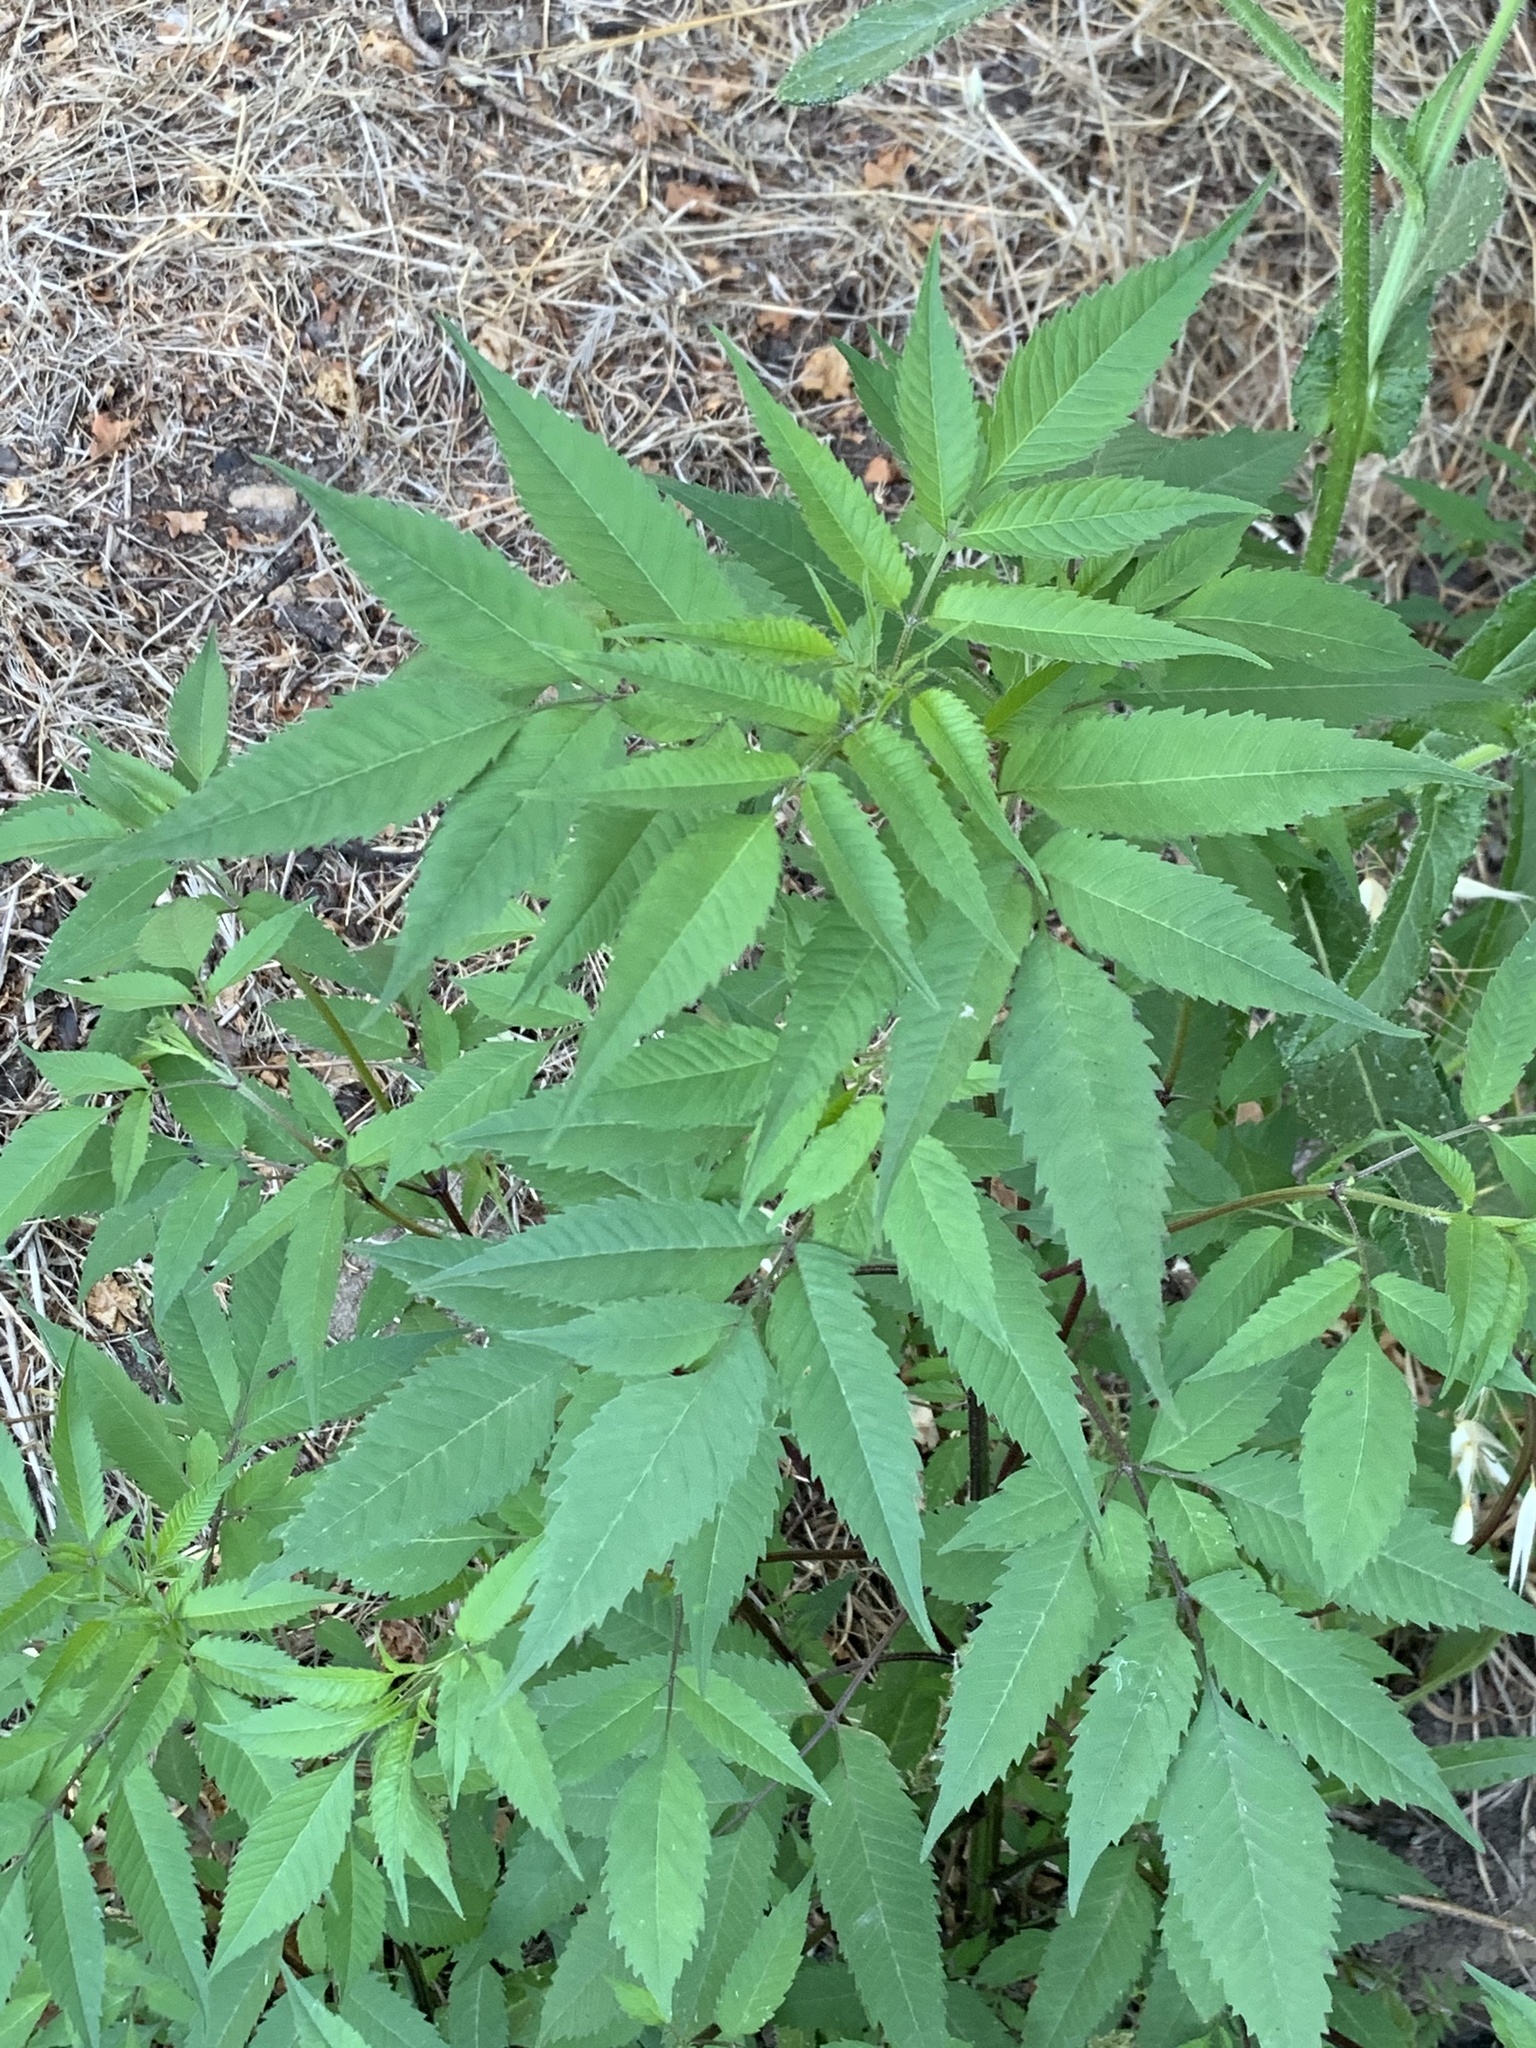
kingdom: Plantae
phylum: Tracheophyta
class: Magnoliopsida
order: Asterales
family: Asteraceae
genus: Bidens
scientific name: Bidens frondosa
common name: Beggarticks
